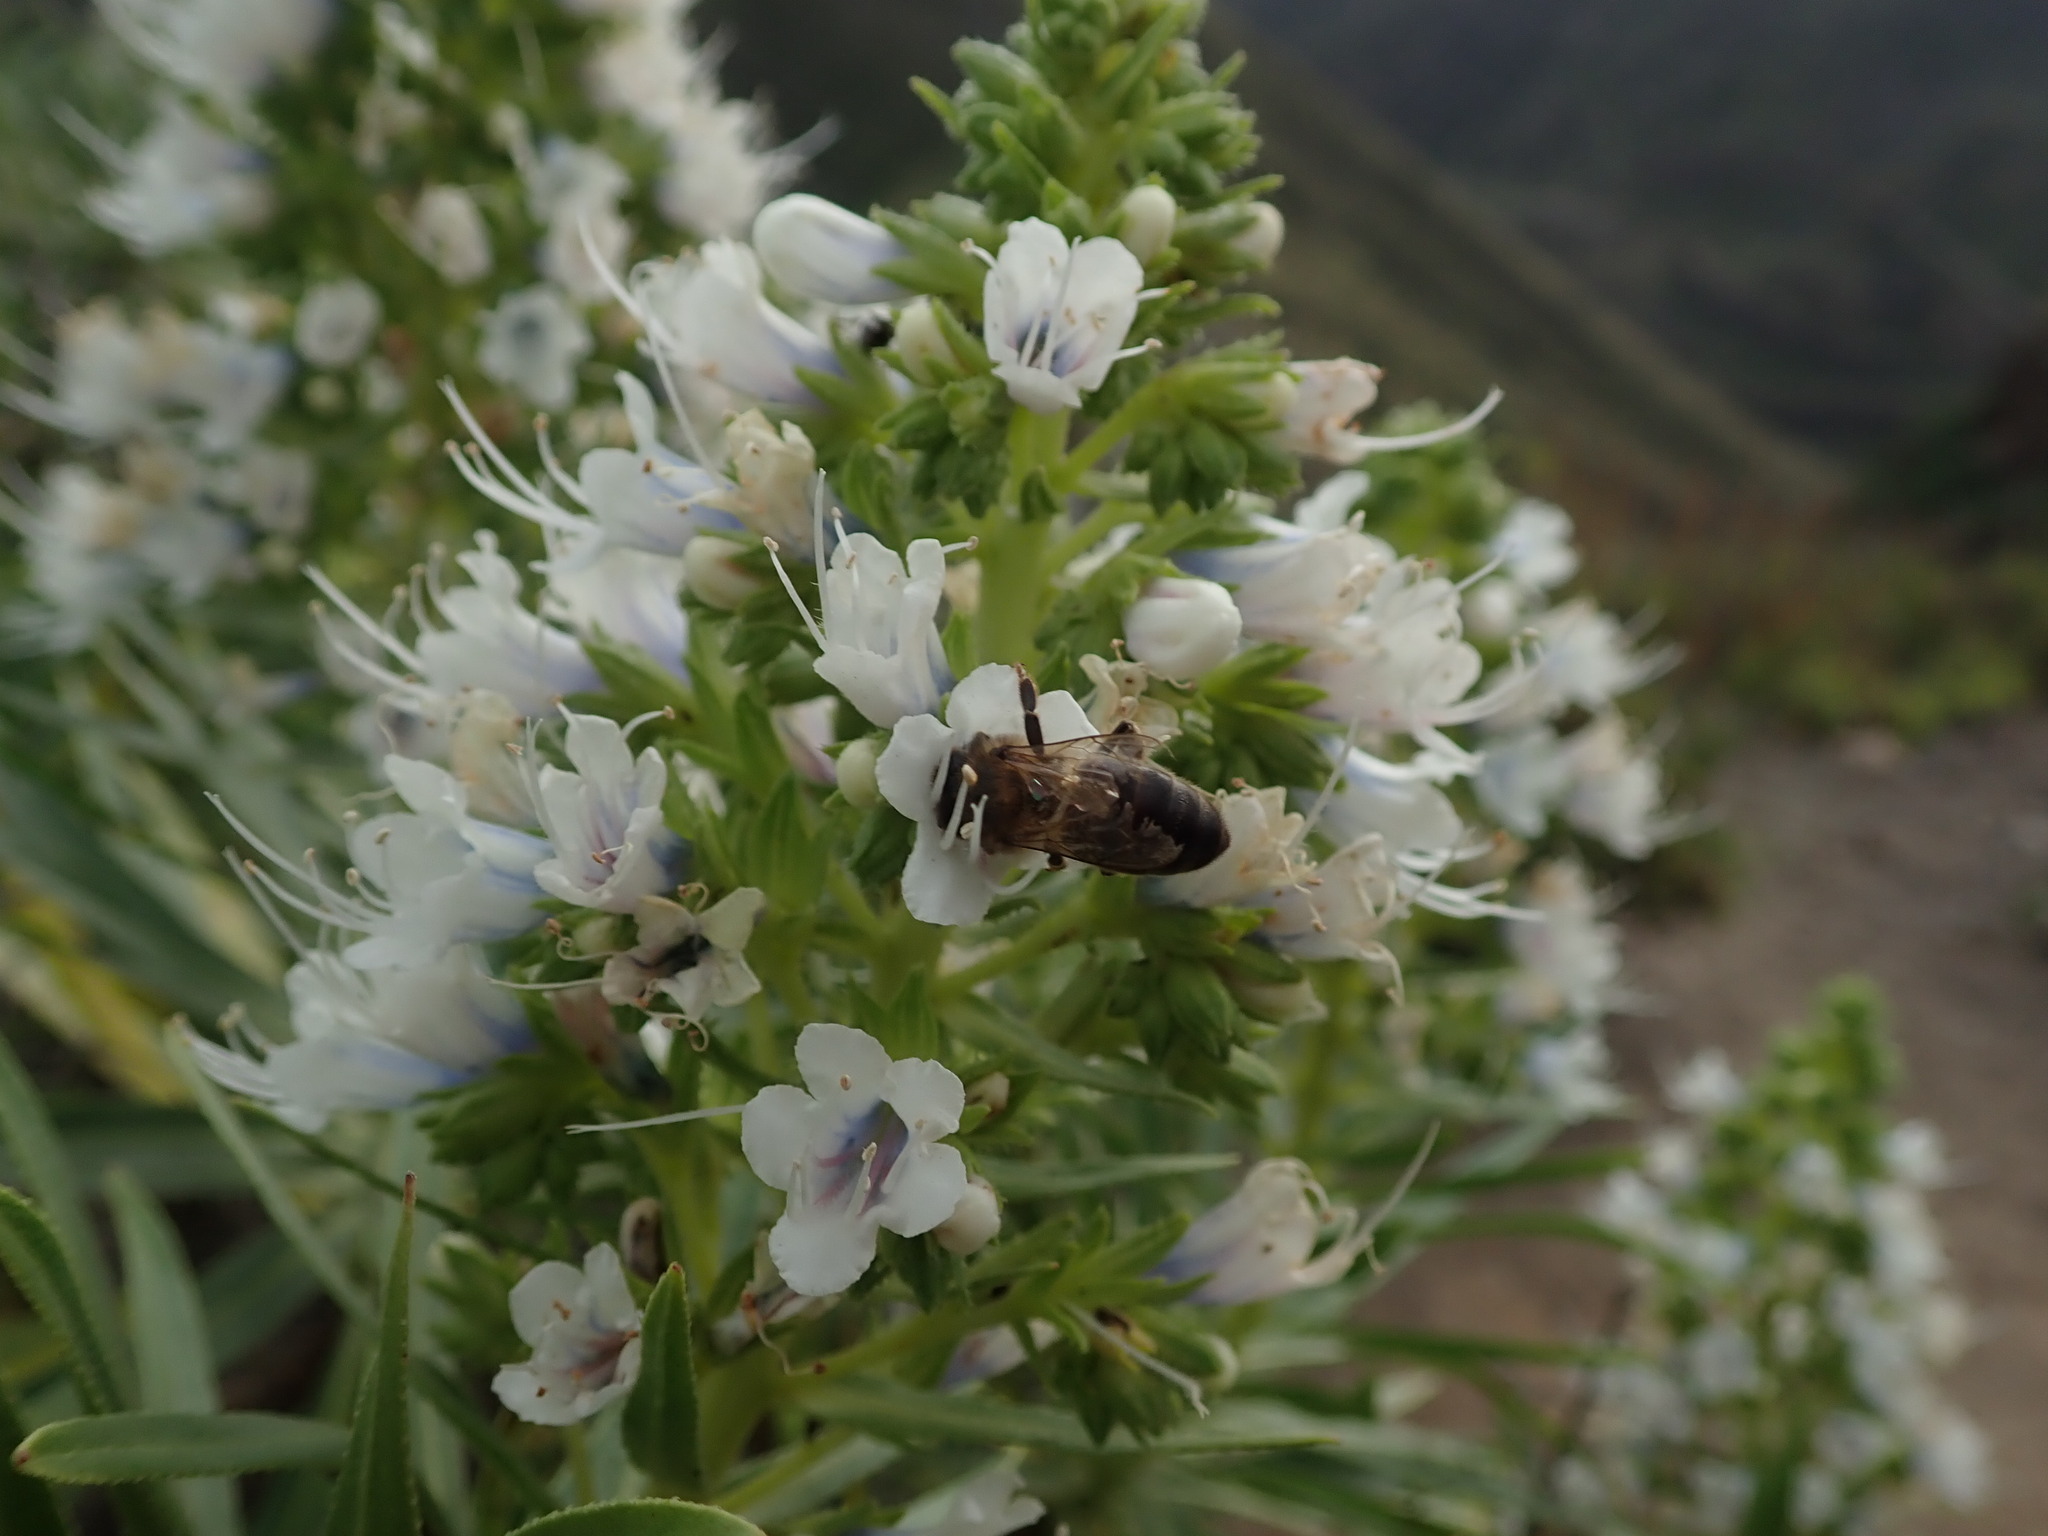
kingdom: Animalia
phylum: Arthropoda
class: Insecta
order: Hymenoptera
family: Apidae
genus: Apis
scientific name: Apis mellifera
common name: Honey bee
